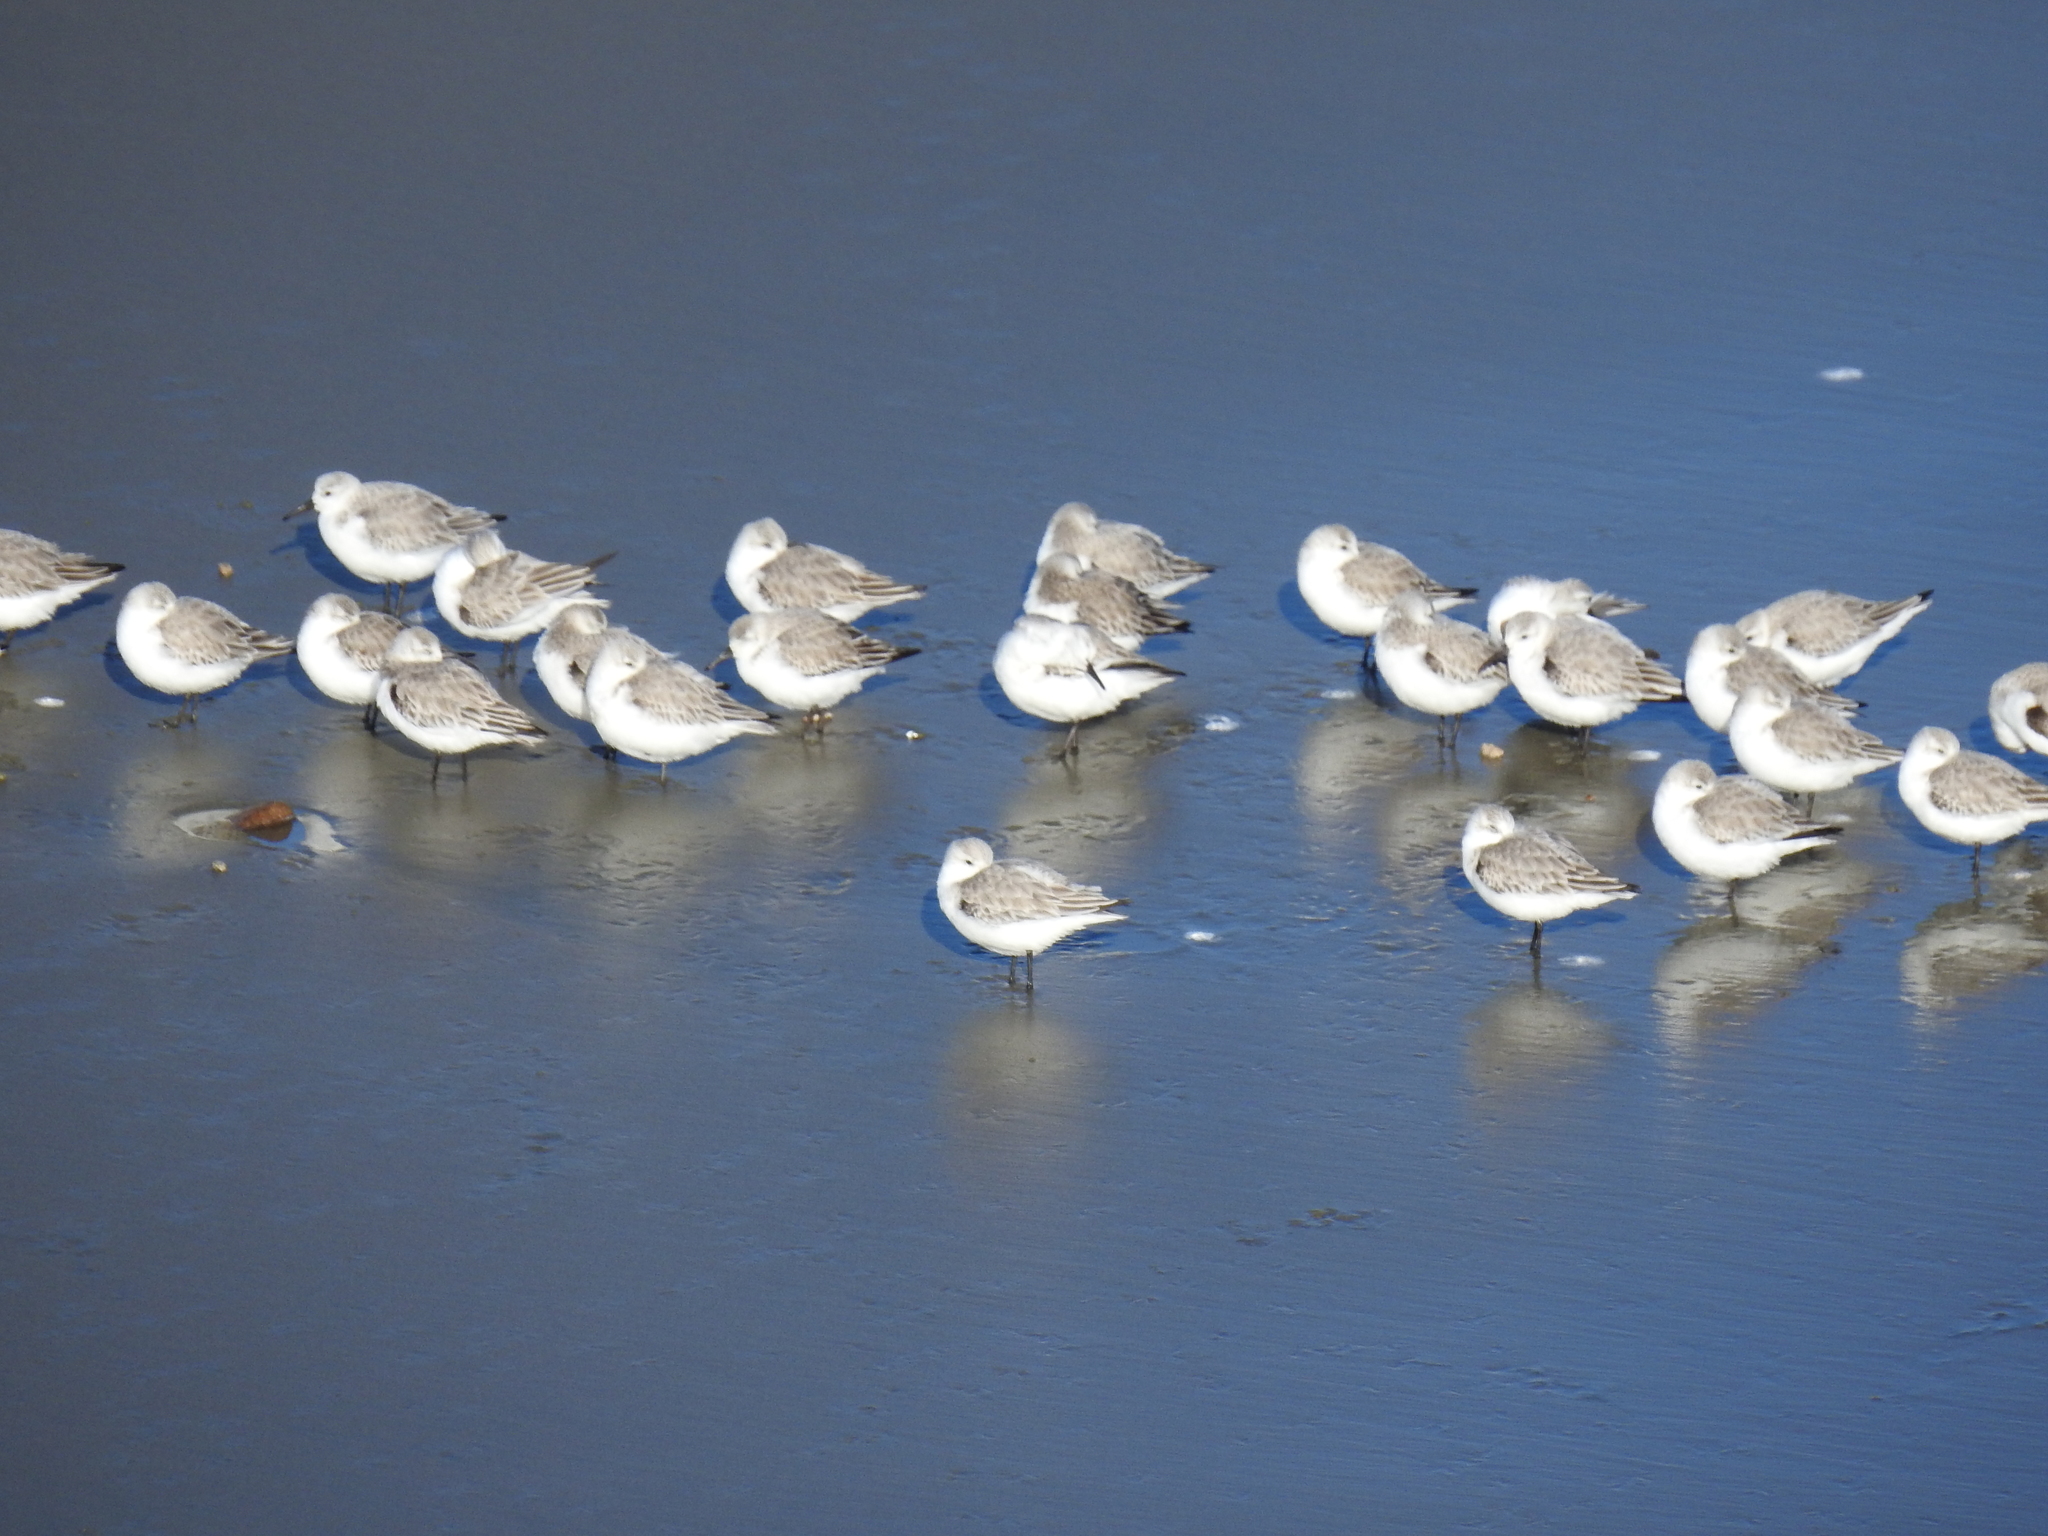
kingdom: Animalia
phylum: Chordata
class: Aves
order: Charadriiformes
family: Scolopacidae
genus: Calidris
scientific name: Calidris alba
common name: Sanderling
